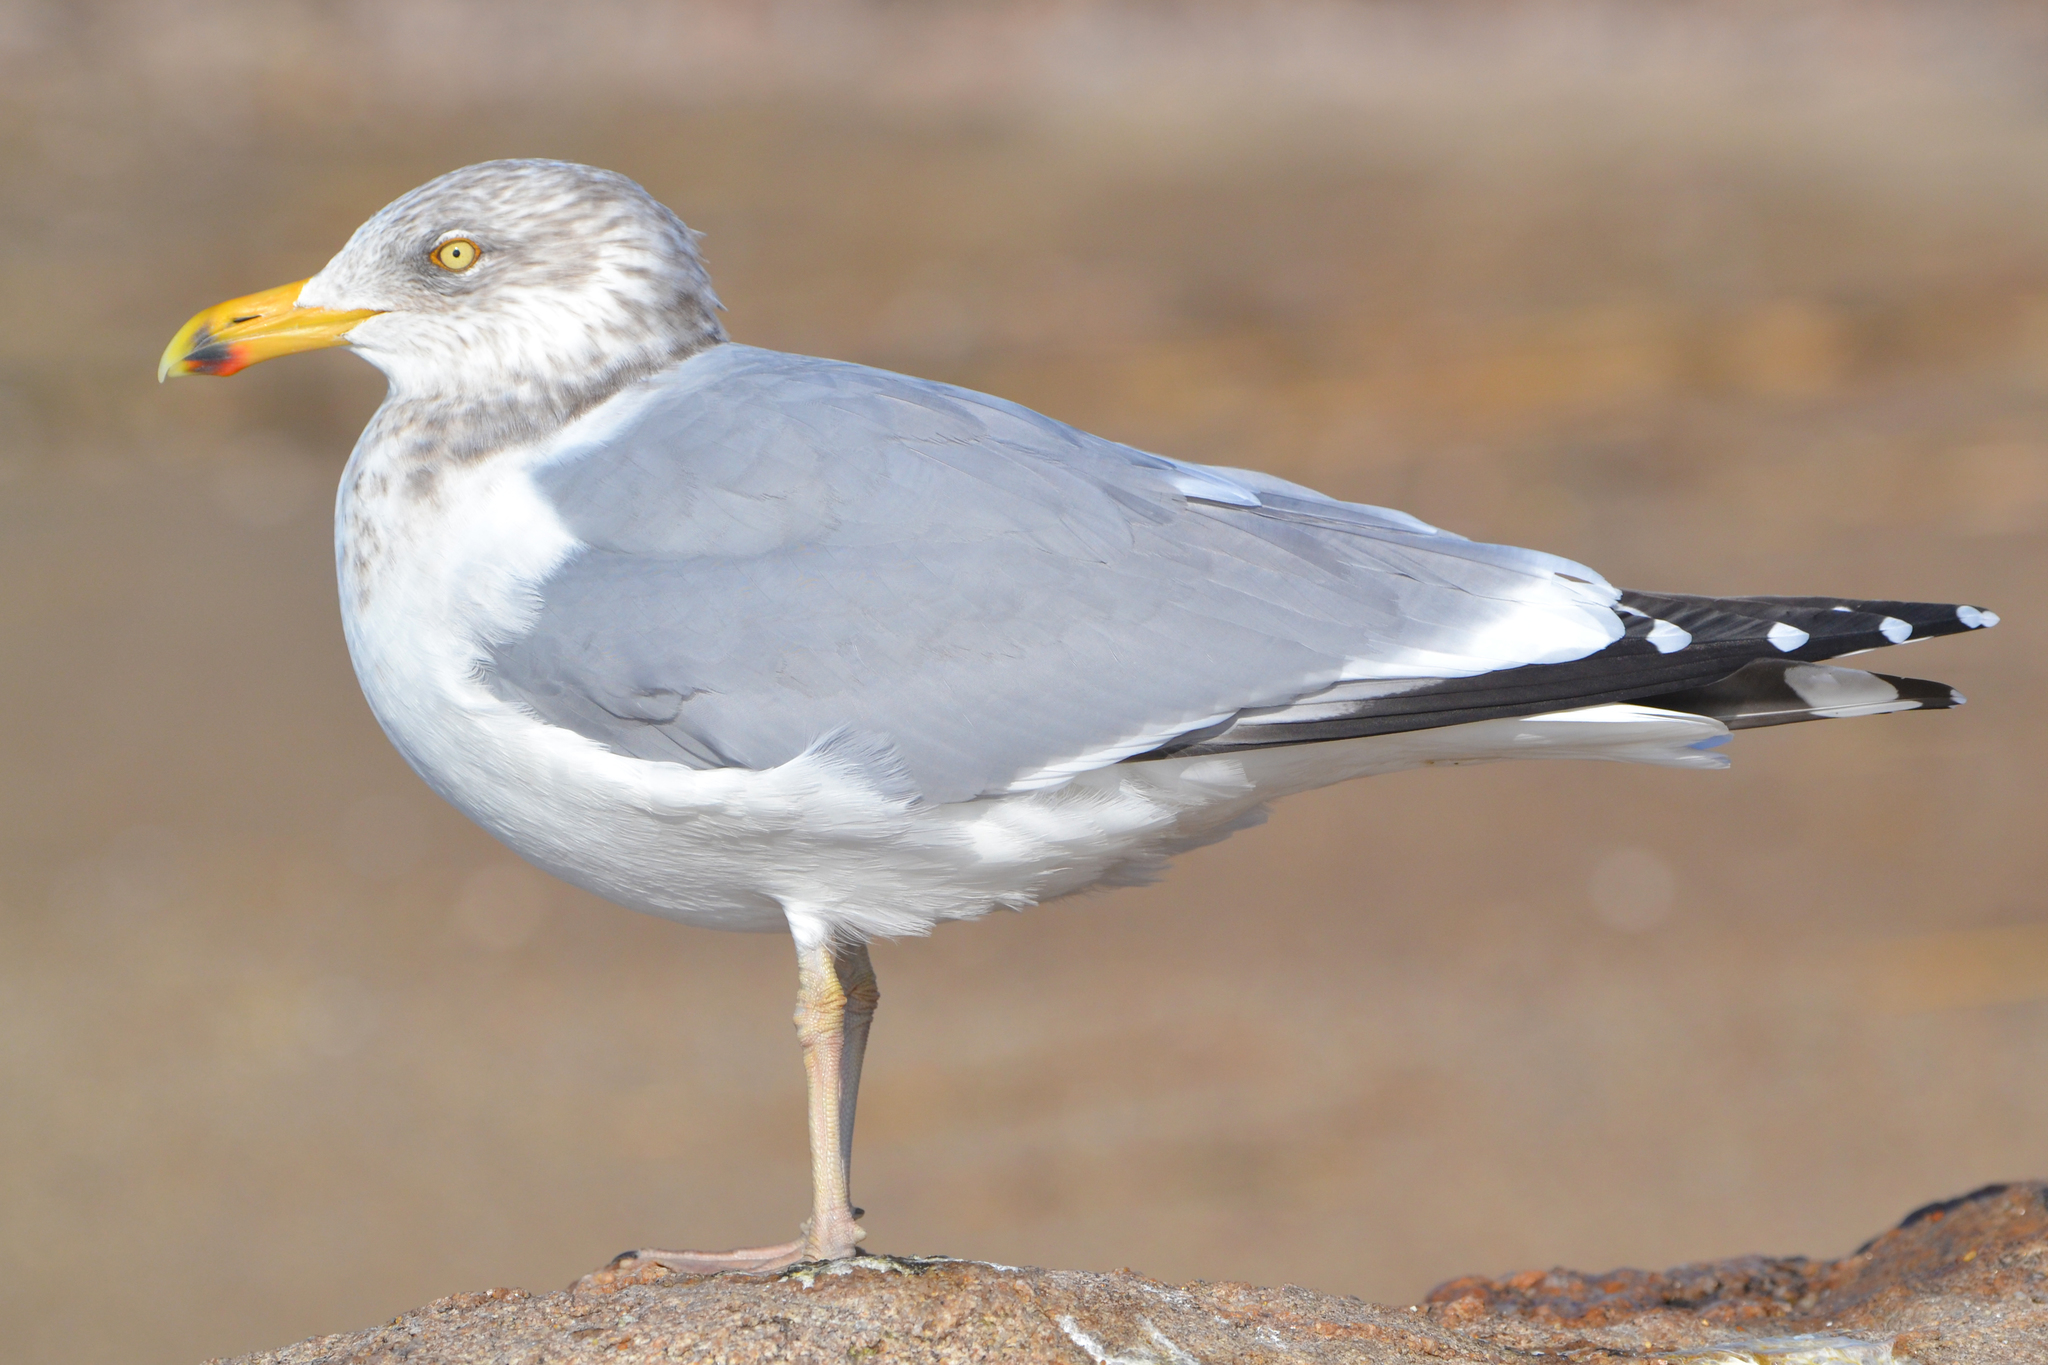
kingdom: Animalia
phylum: Chordata
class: Aves
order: Charadriiformes
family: Laridae
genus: Larus
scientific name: Larus smithsonianus
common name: American herring gull
